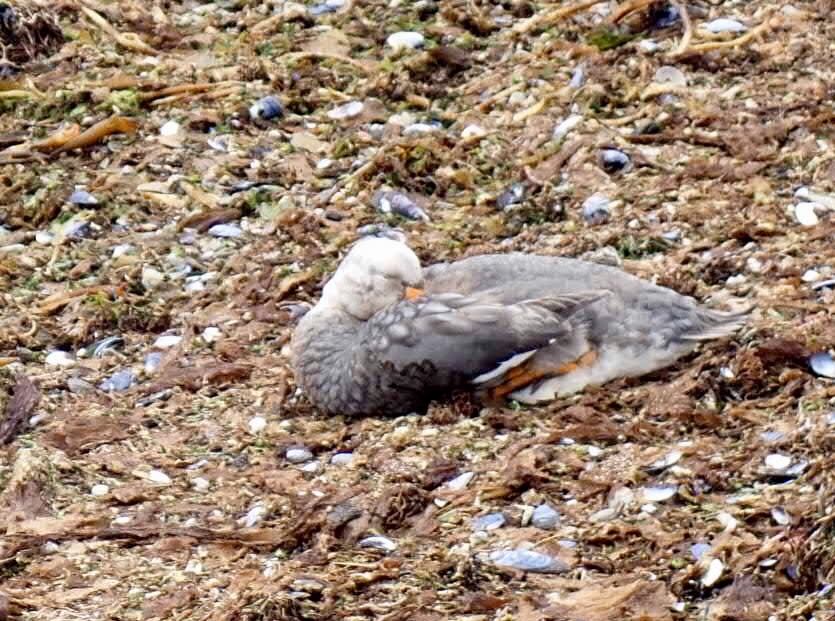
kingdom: Animalia
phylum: Chordata
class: Aves
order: Anseriformes
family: Anatidae
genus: Tachyeres
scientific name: Tachyeres brachypterus
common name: Falkland steamer duck
